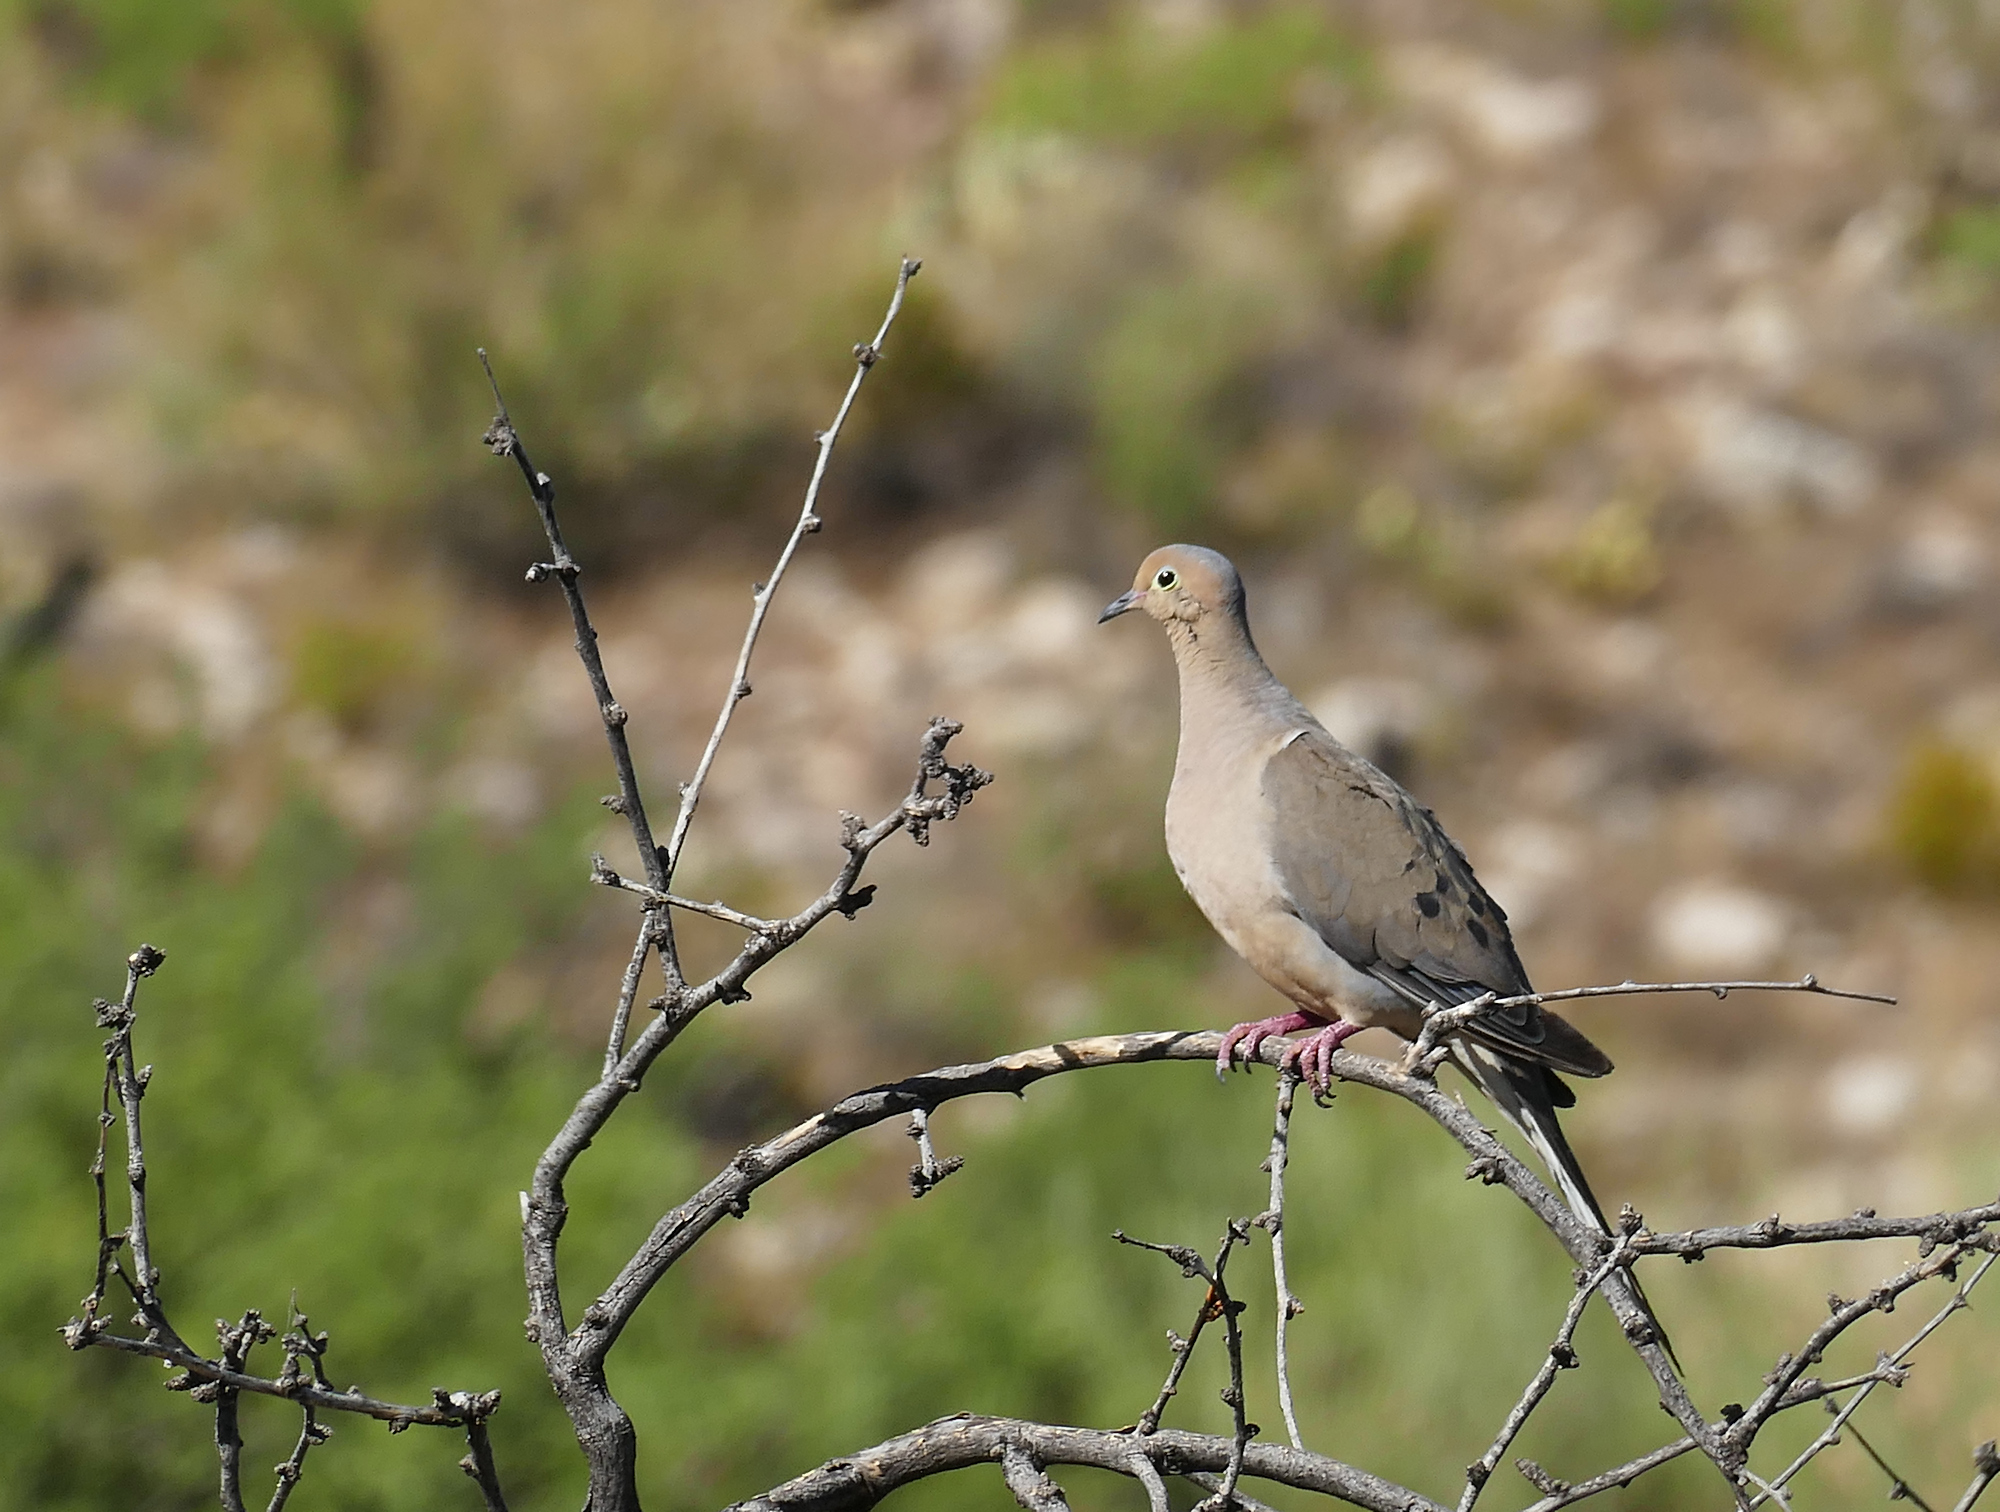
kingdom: Animalia
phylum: Chordata
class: Aves
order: Columbiformes
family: Columbidae
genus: Zenaida
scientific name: Zenaida macroura
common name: Mourning dove
